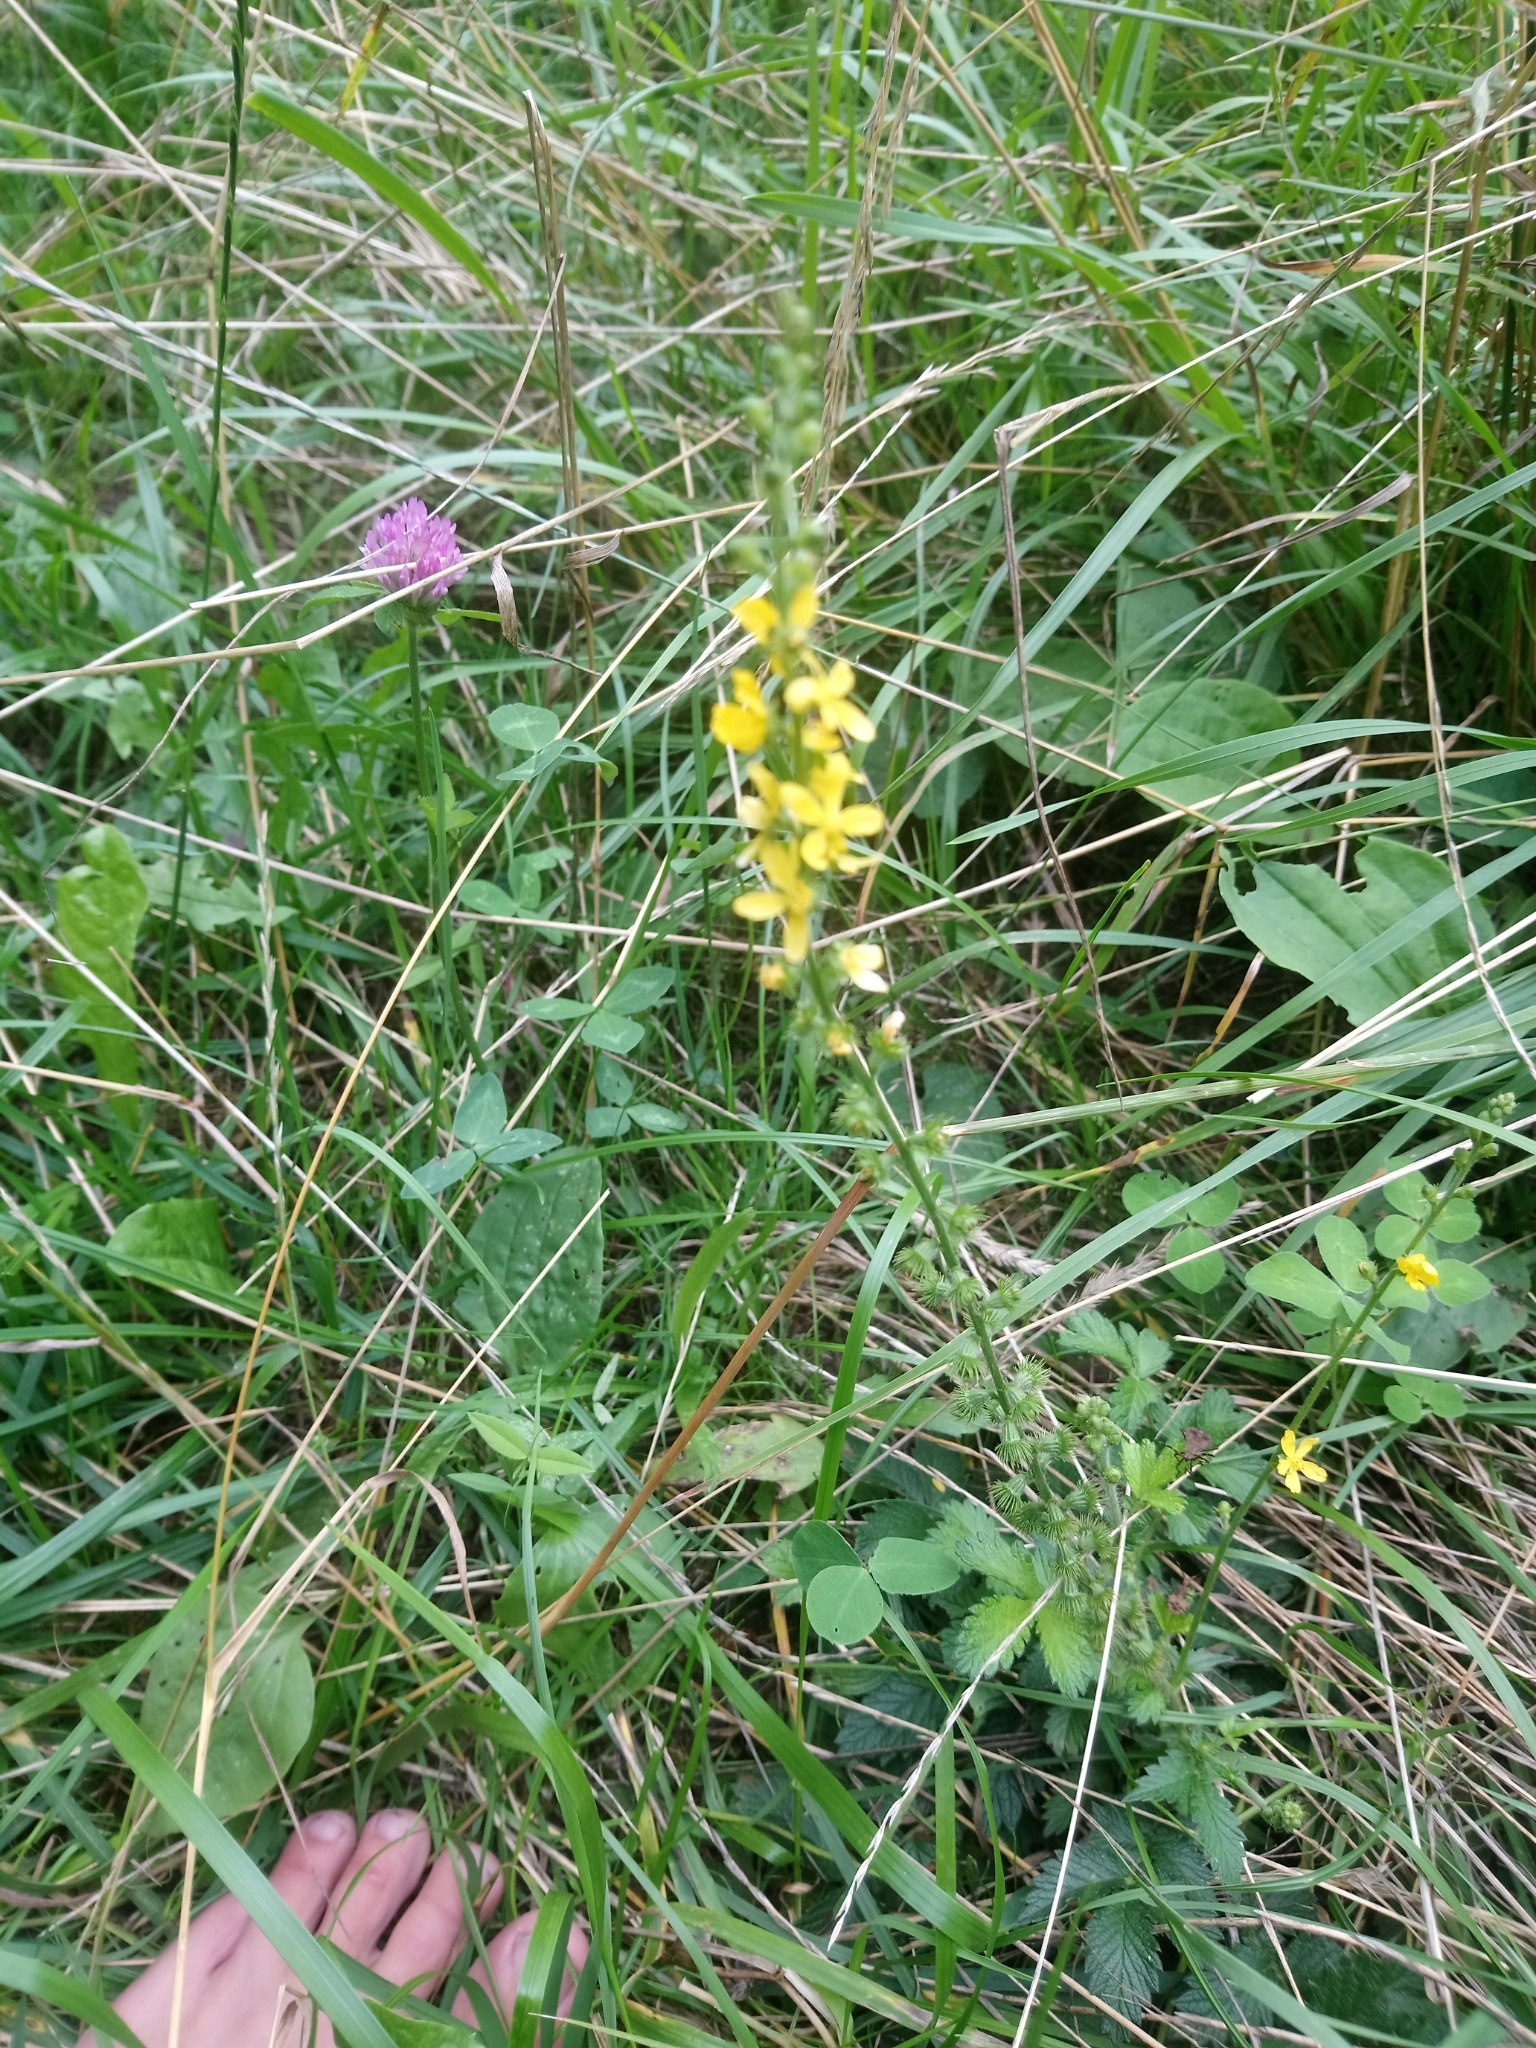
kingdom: Plantae
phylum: Tracheophyta
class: Magnoliopsida
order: Rosales
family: Rosaceae
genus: Agrimonia
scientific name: Agrimonia eupatoria
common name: Agrimony
